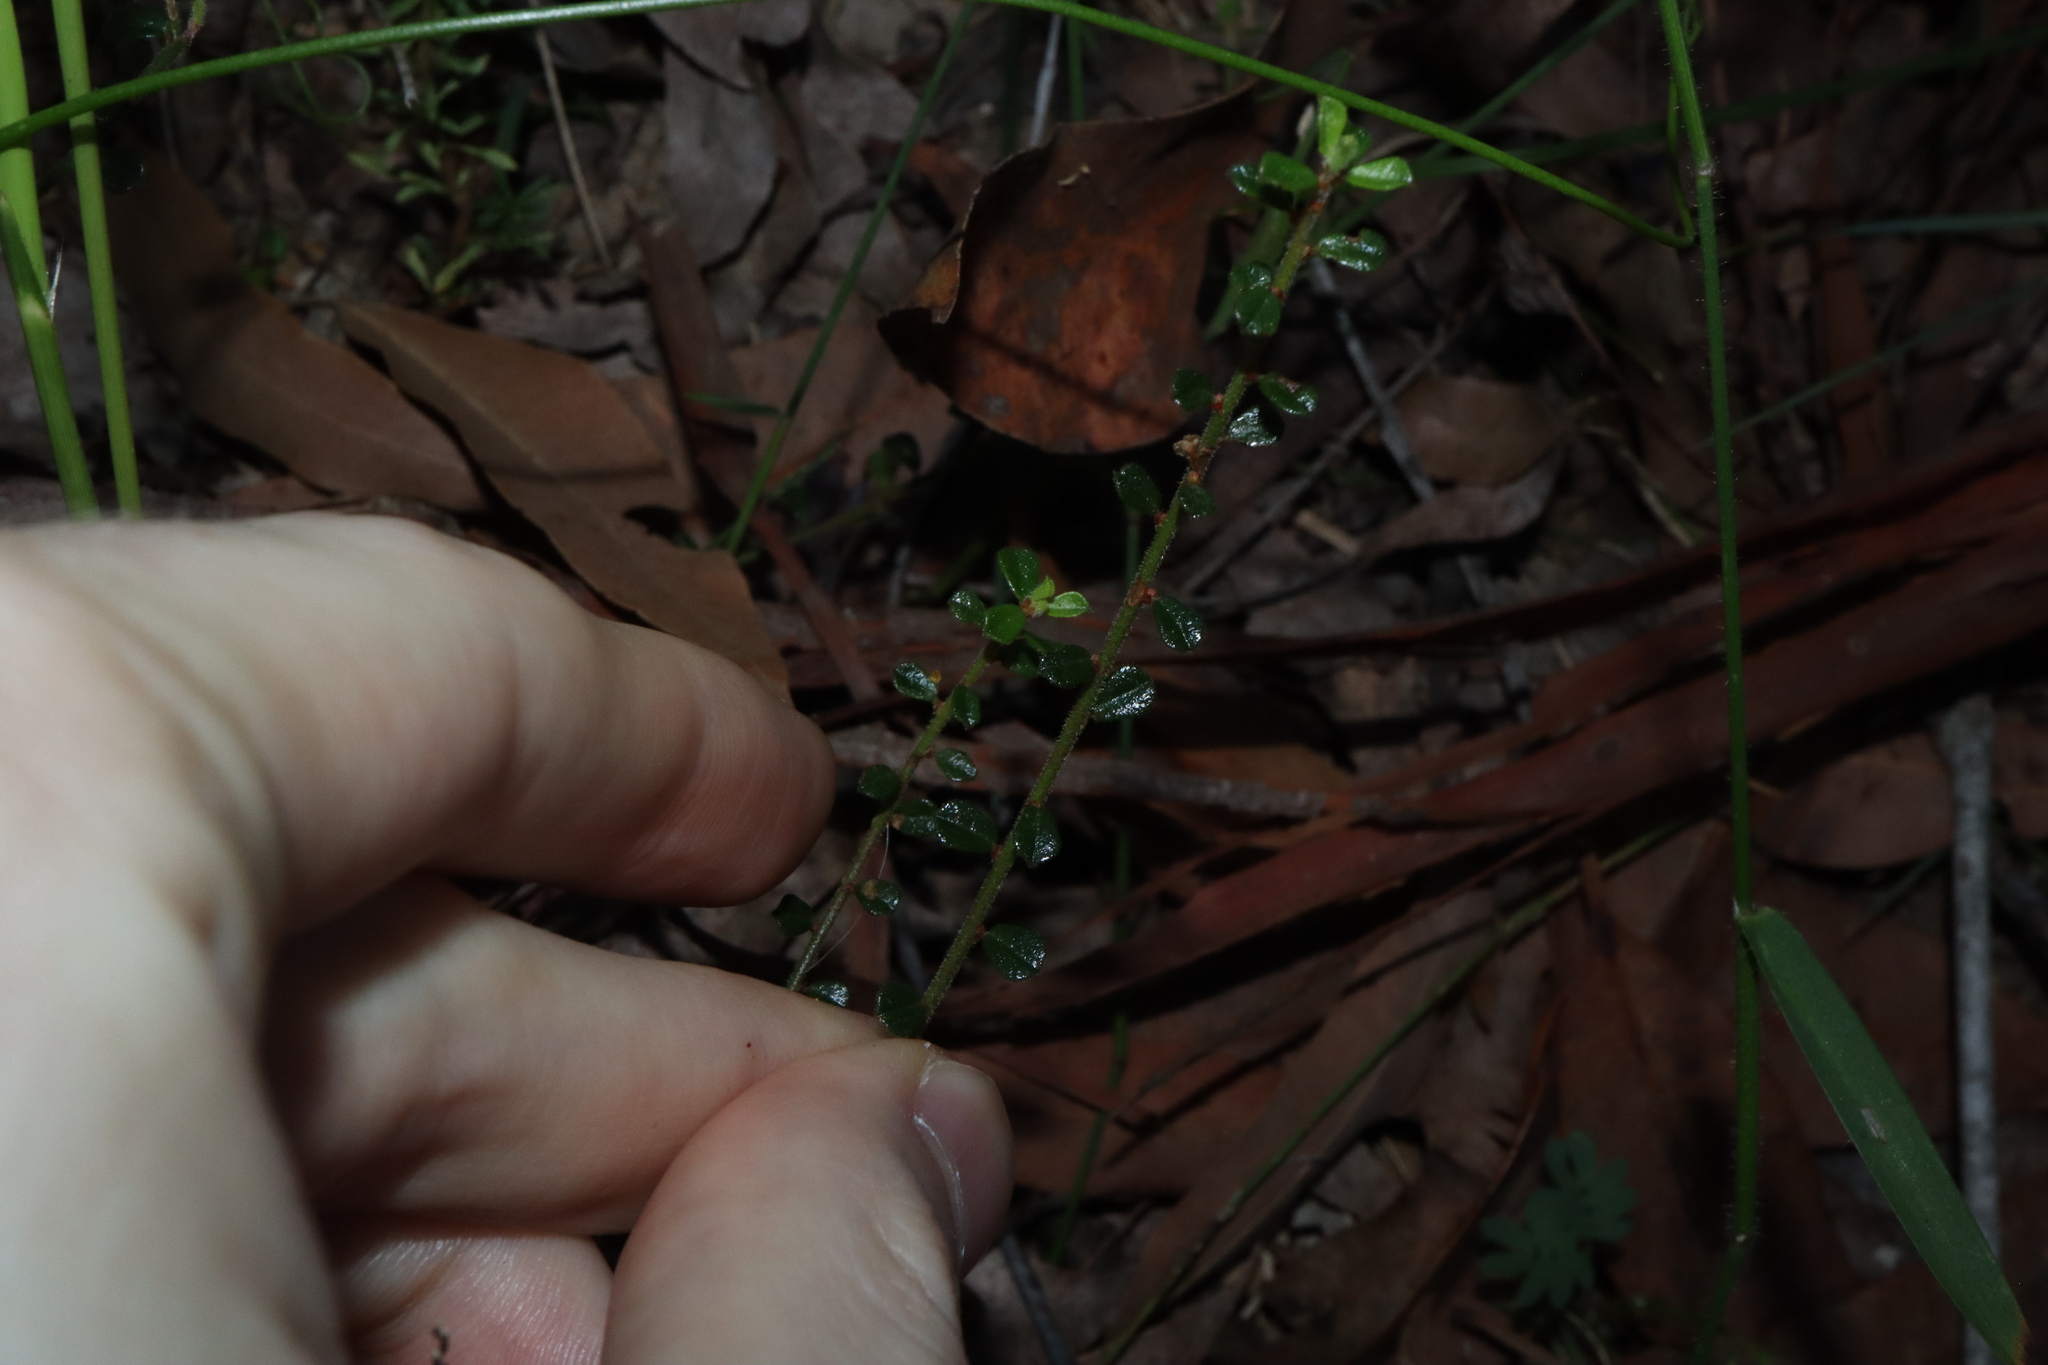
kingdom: Plantae
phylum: Tracheophyta
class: Magnoliopsida
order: Malpighiales
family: Phyllanthaceae
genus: Phyllanthus
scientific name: Phyllanthus hirtellus
